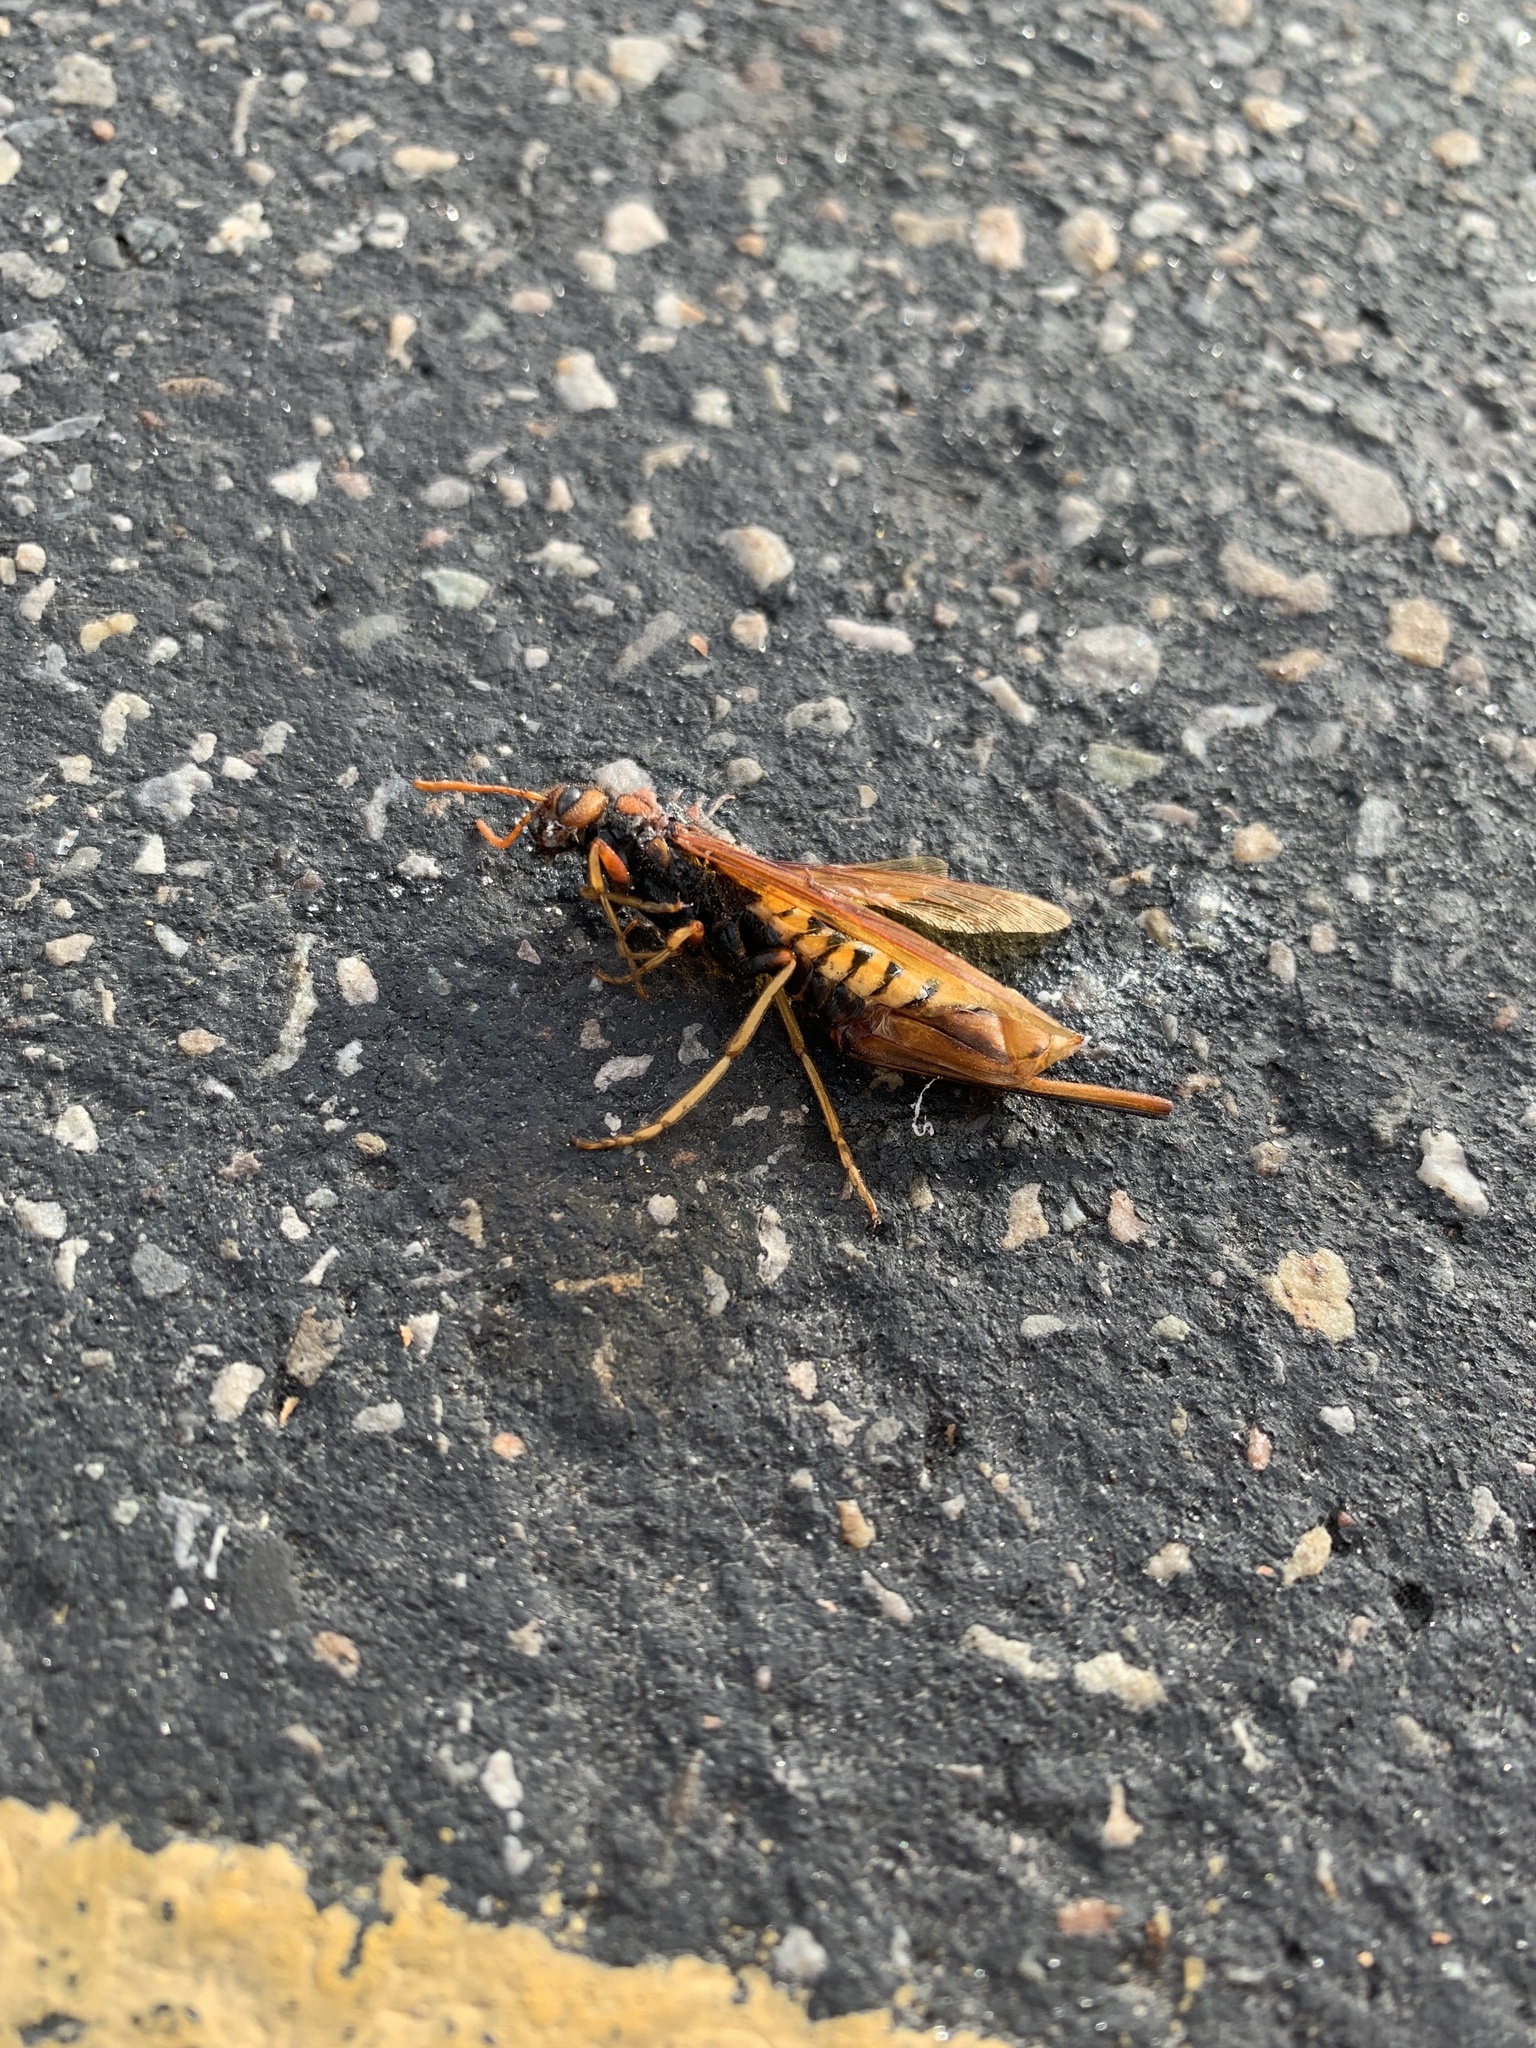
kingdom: Animalia
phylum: Arthropoda
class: Insecta
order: Hymenoptera
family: Siricidae
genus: Tremex
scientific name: Tremex columba
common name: Wasp
